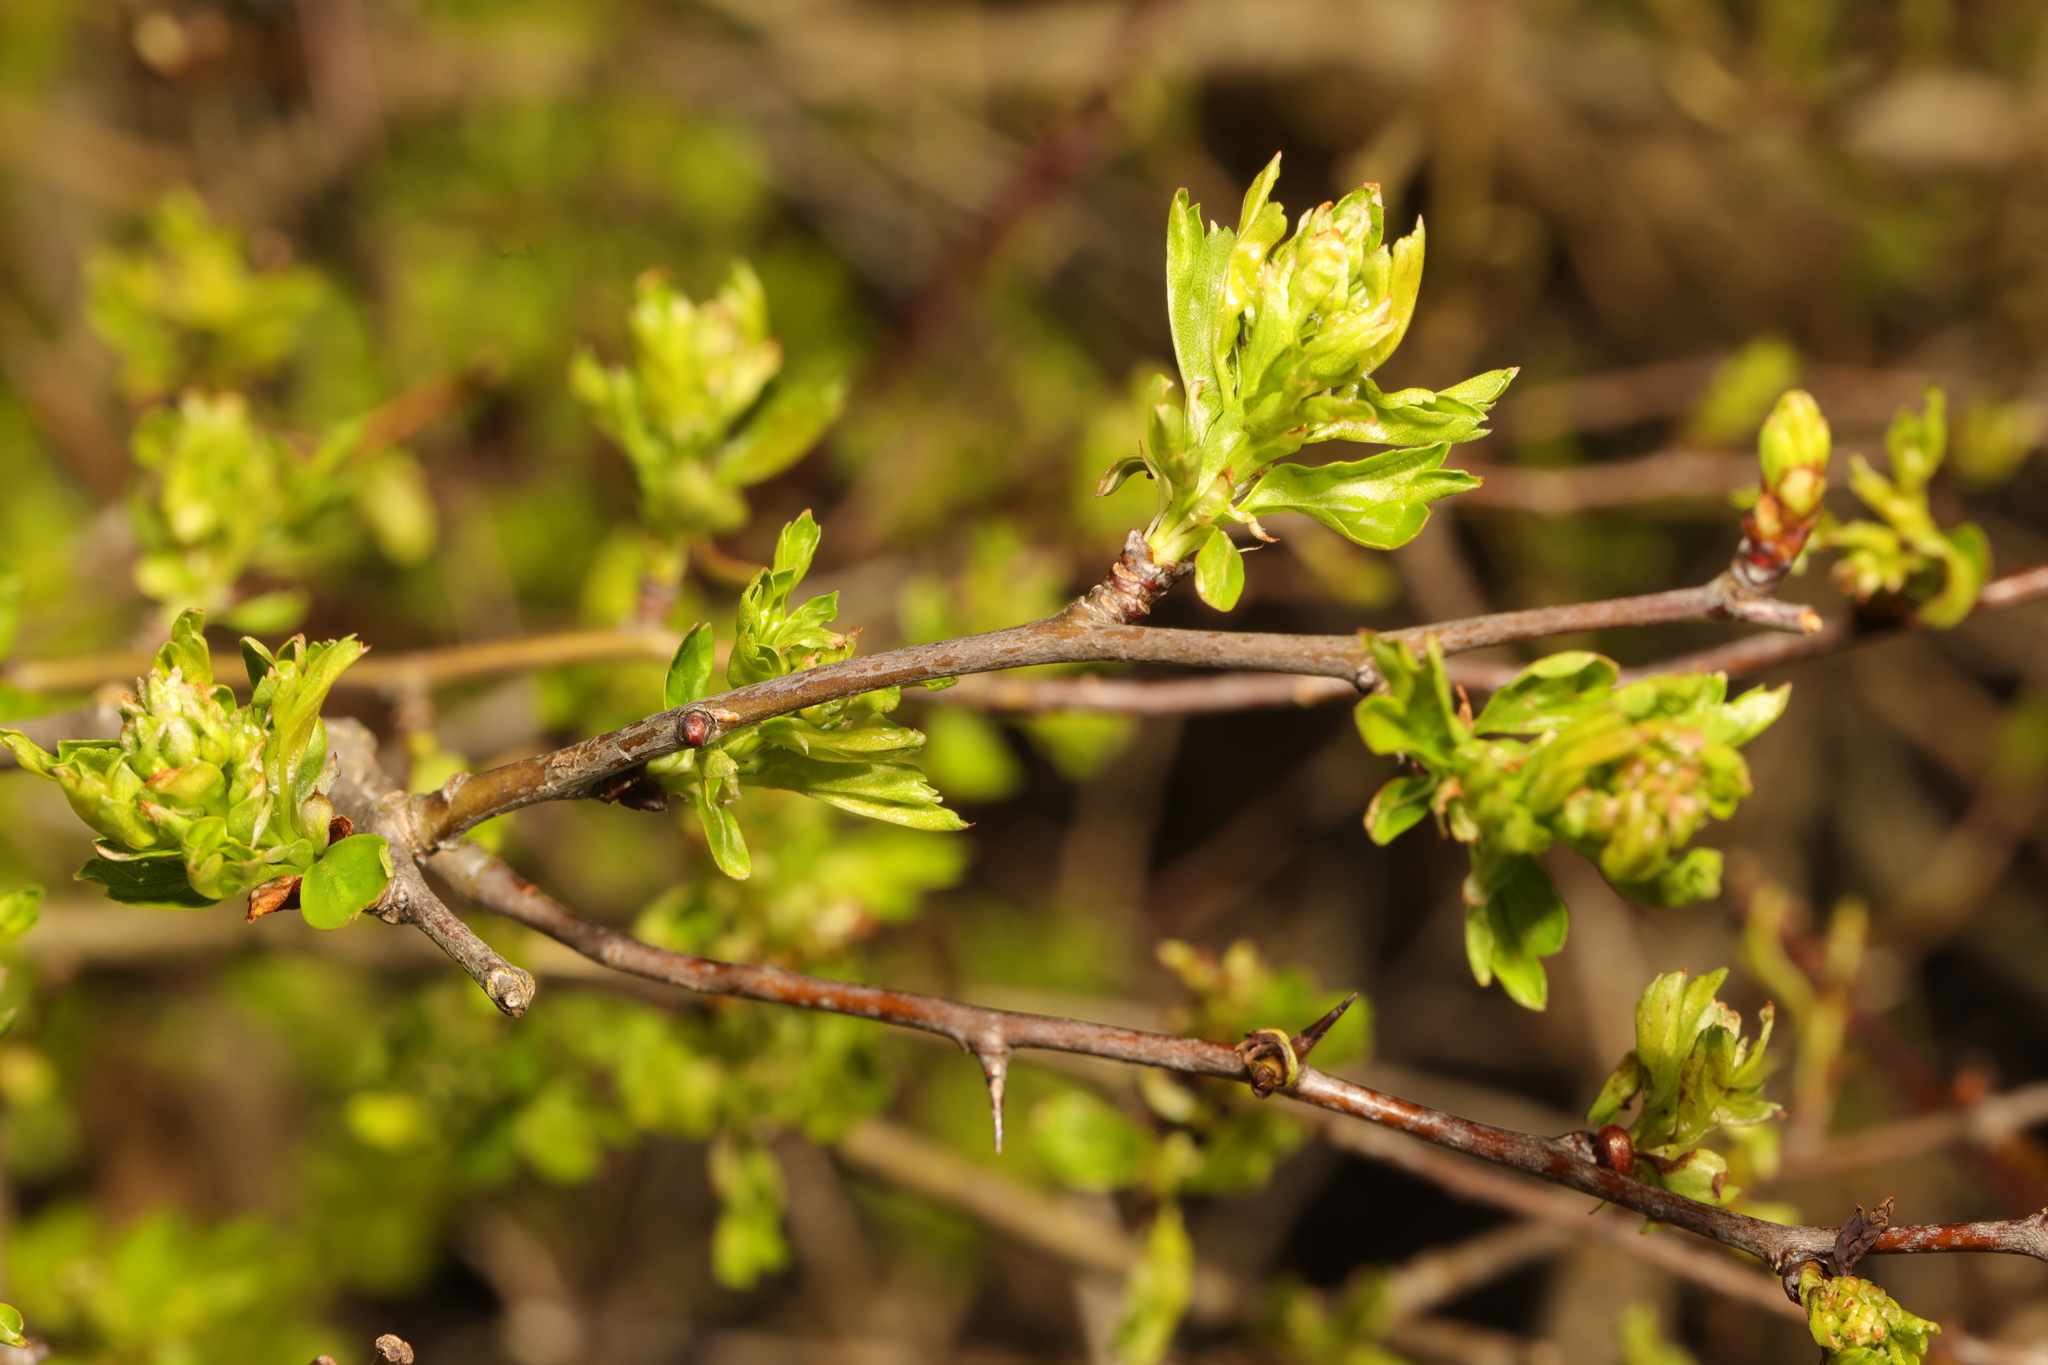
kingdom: Plantae
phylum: Tracheophyta
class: Magnoliopsida
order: Rosales
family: Rosaceae
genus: Crataegus
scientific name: Crataegus monogyna
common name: Hawthorn
